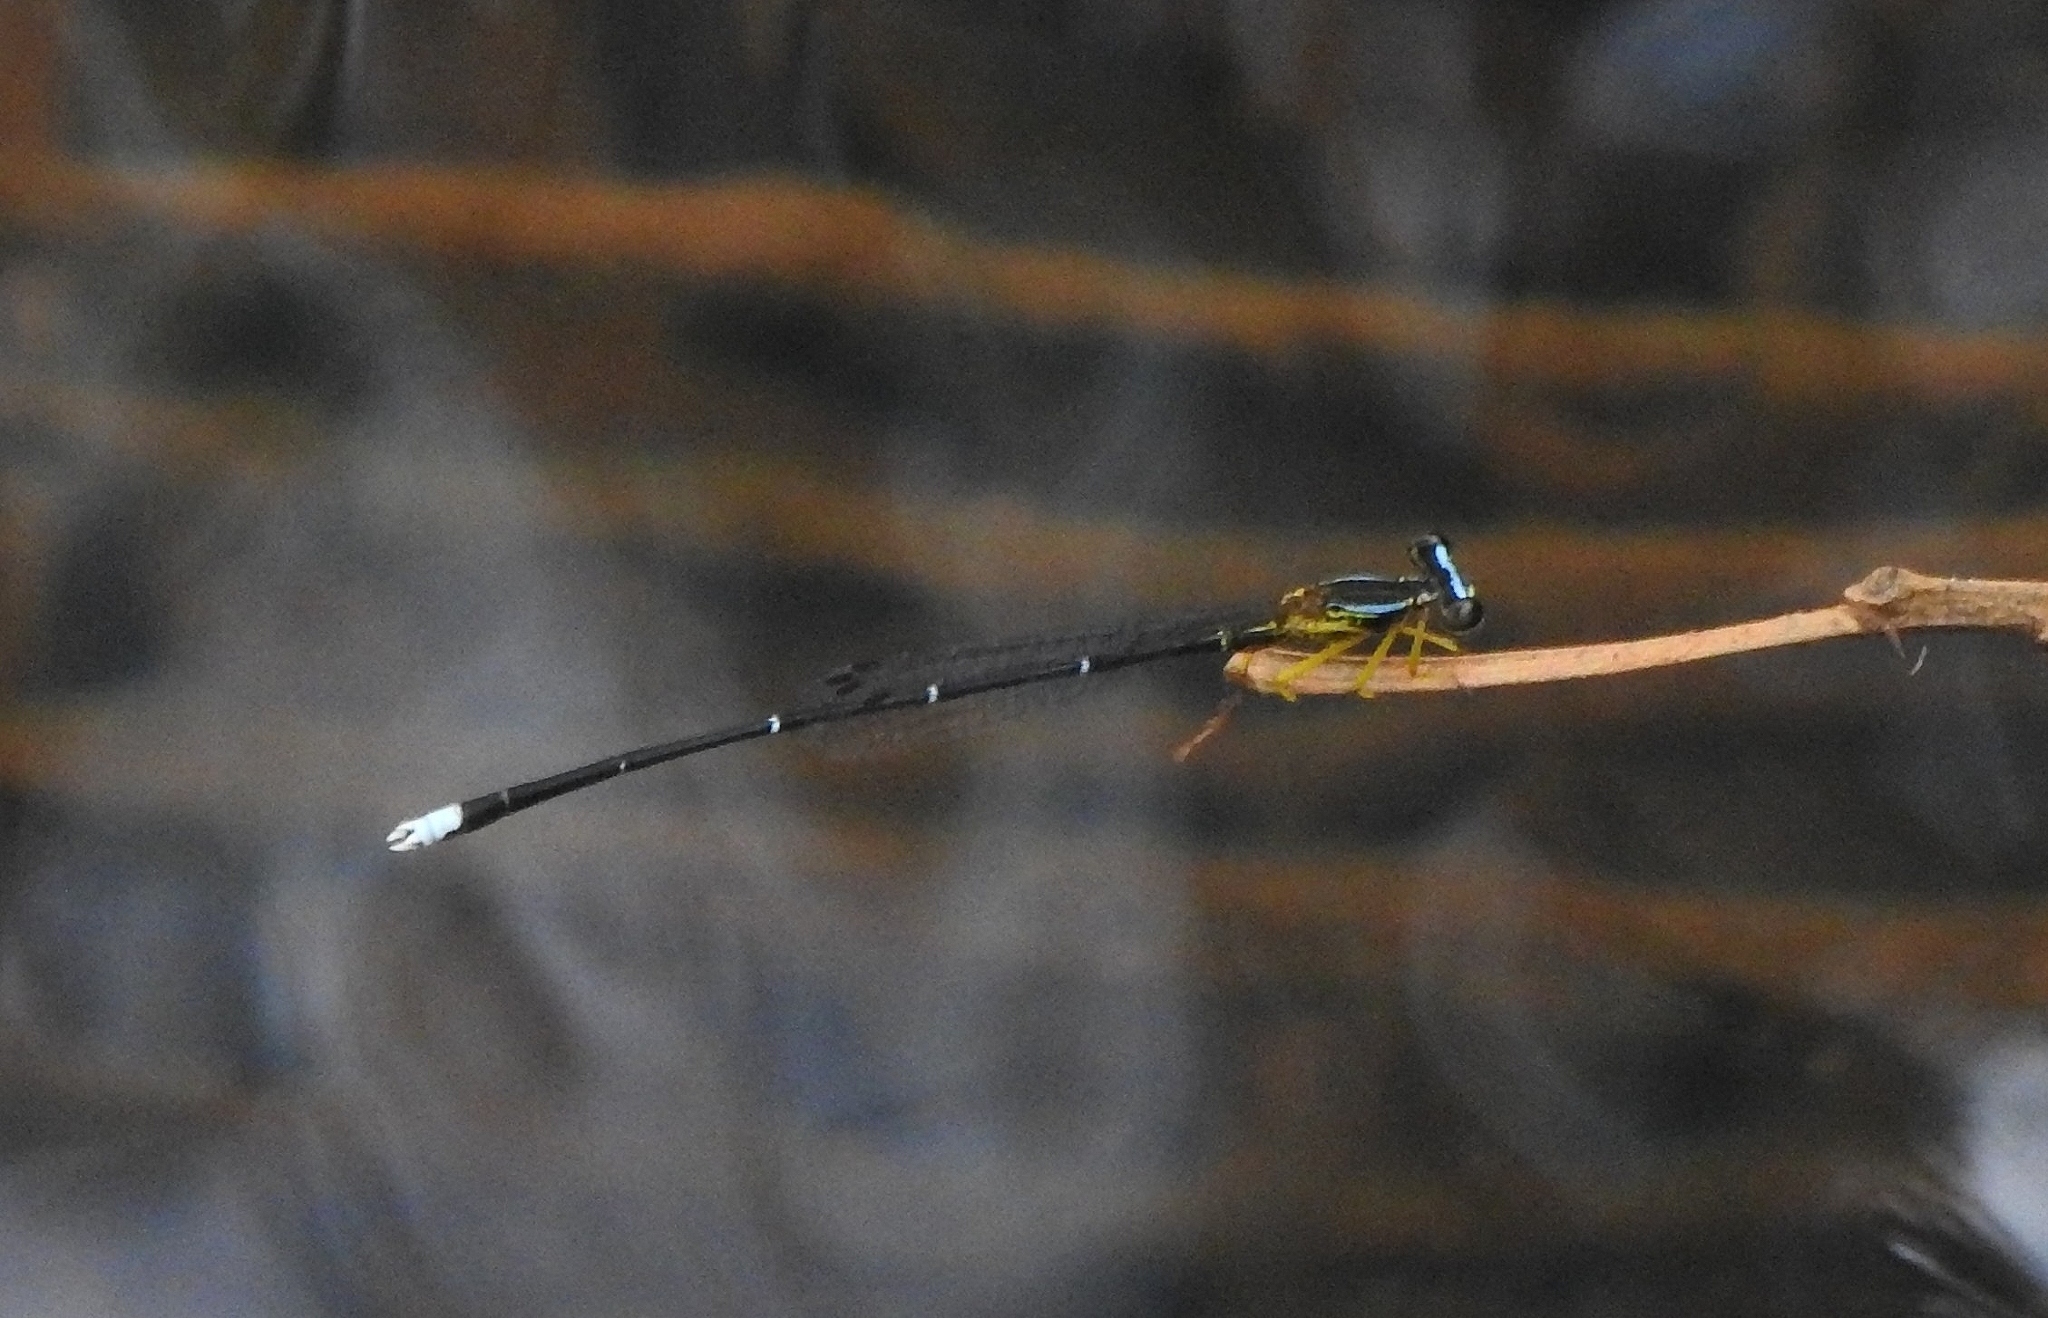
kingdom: Animalia
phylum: Arthropoda
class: Insecta
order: Odonata
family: Platycnemididae
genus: Copera
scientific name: Copera vittata
